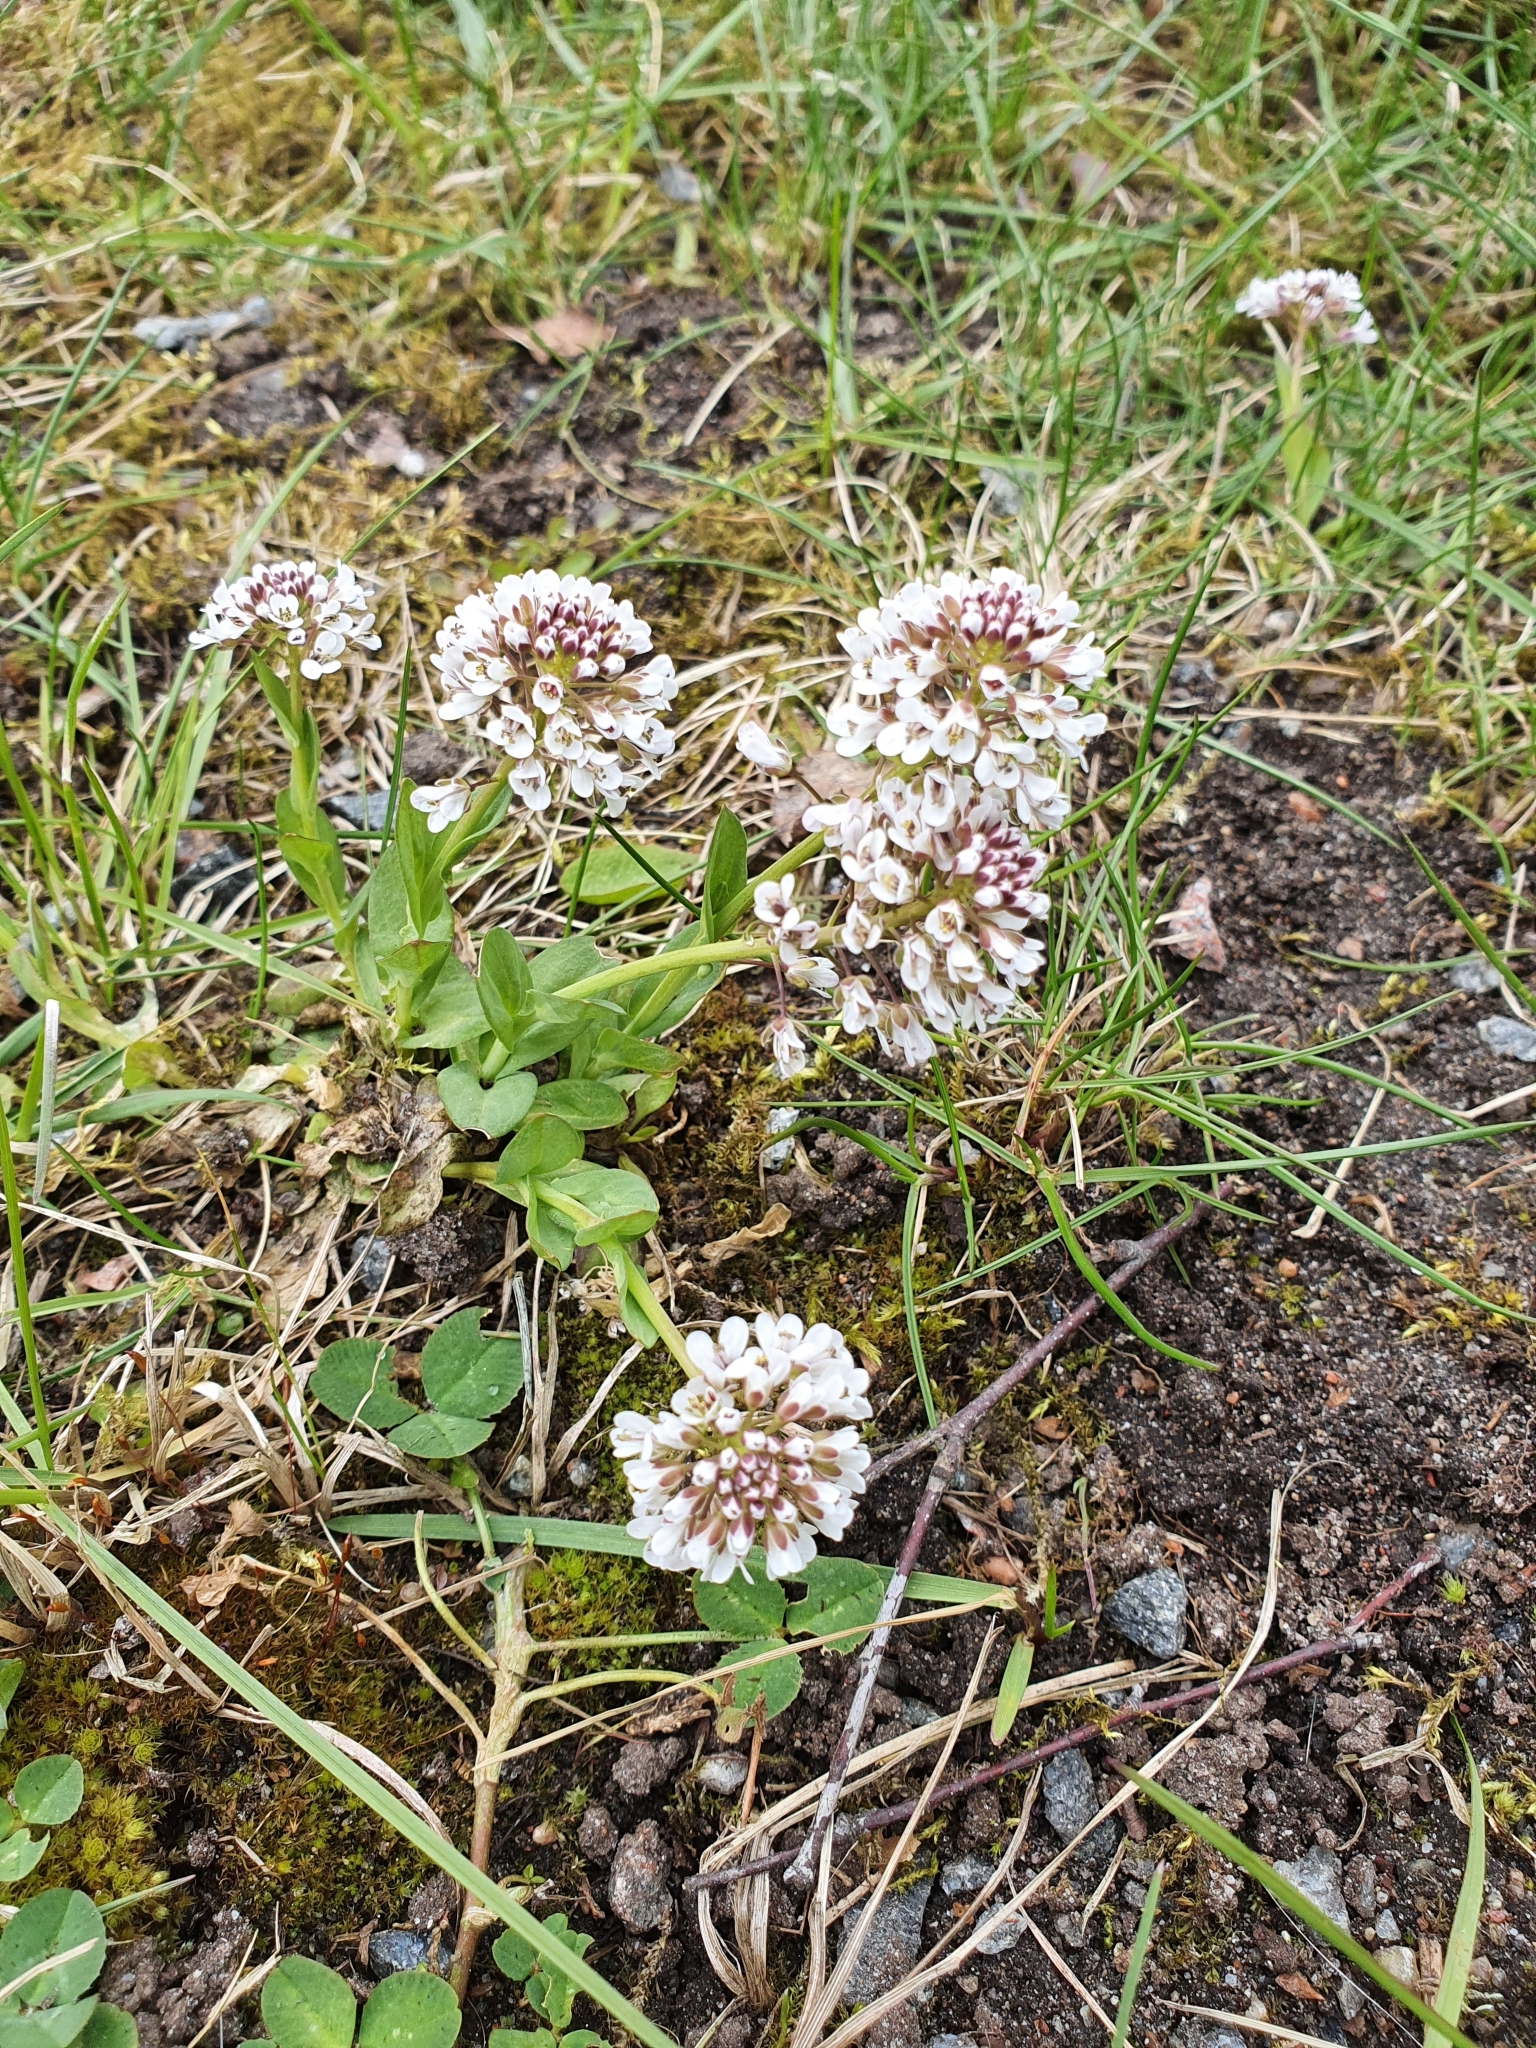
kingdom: Plantae
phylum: Tracheophyta
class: Magnoliopsida
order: Brassicales
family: Brassicaceae
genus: Noccaea
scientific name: Noccaea caerulescens
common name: Alpine pennycress
